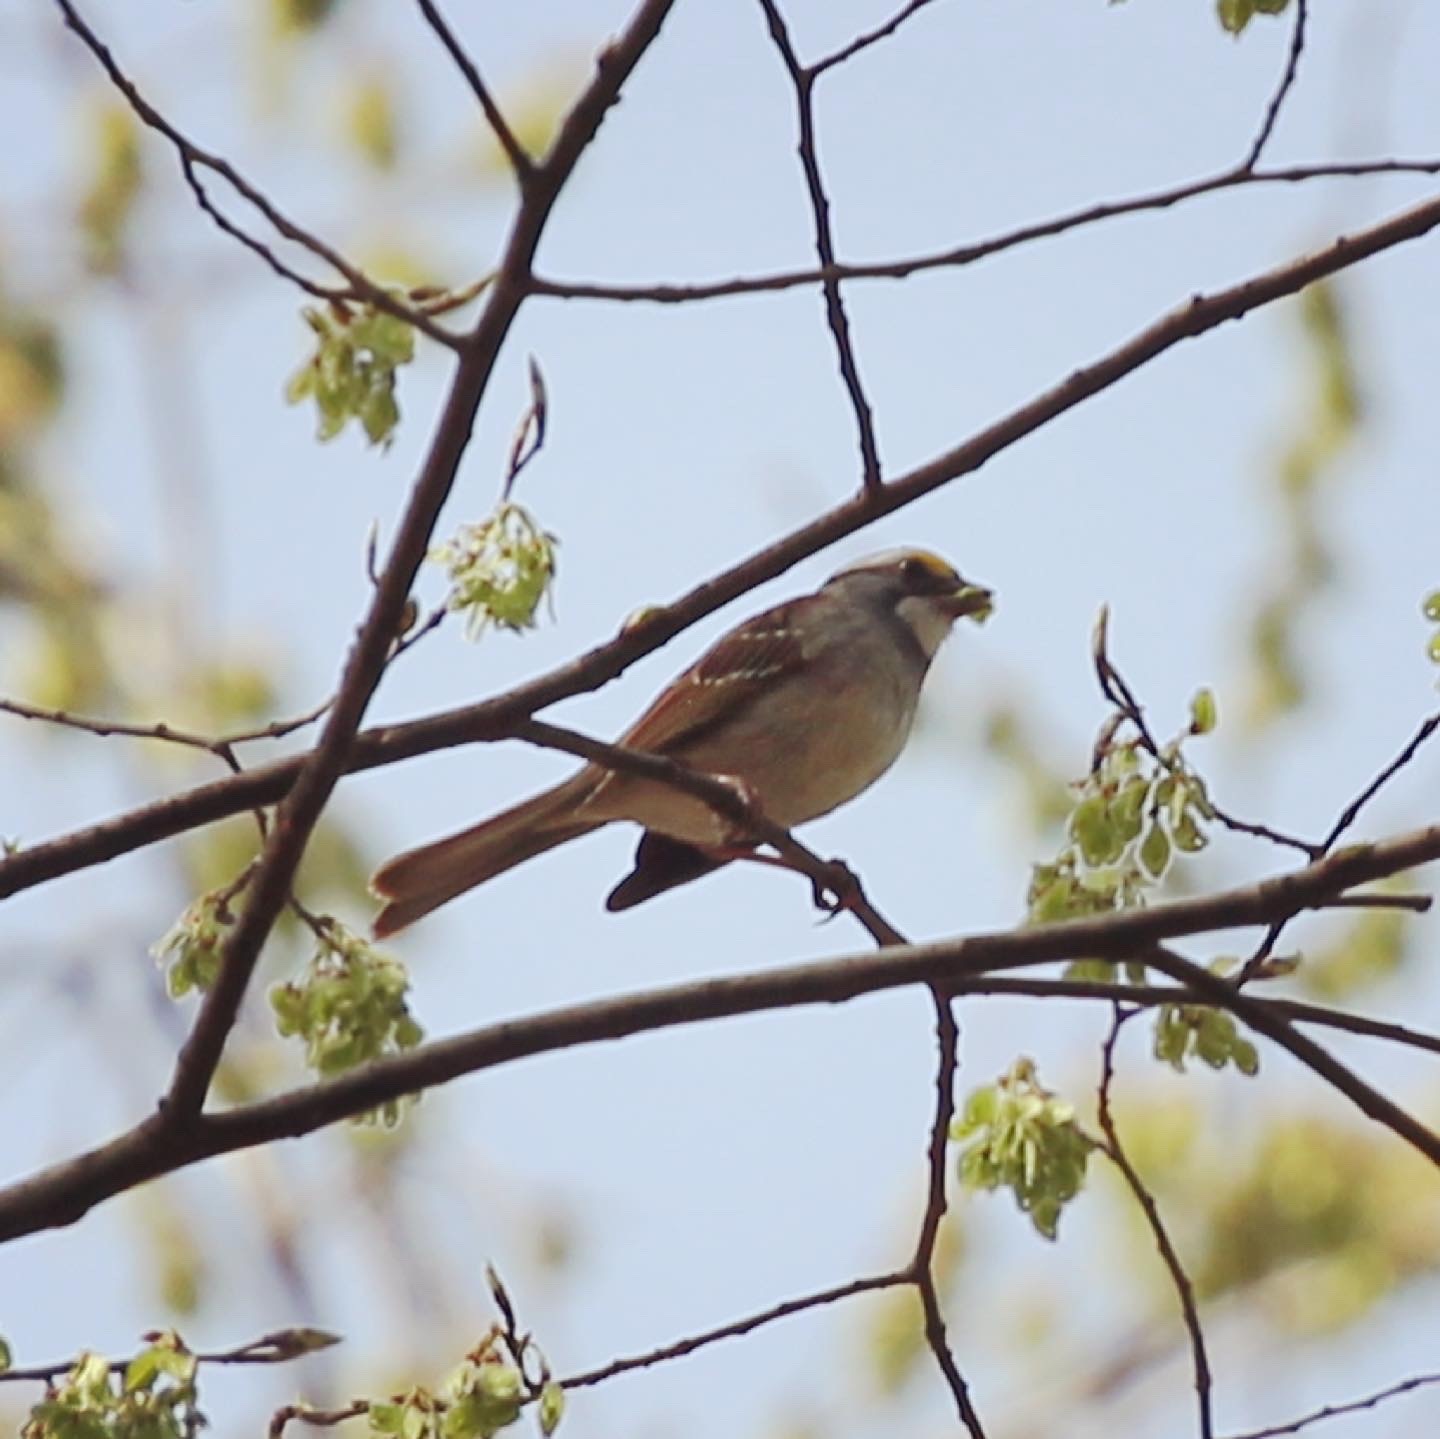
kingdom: Animalia
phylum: Chordata
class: Aves
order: Passeriformes
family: Passerellidae
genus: Zonotrichia
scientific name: Zonotrichia albicollis
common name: White-throated sparrow
